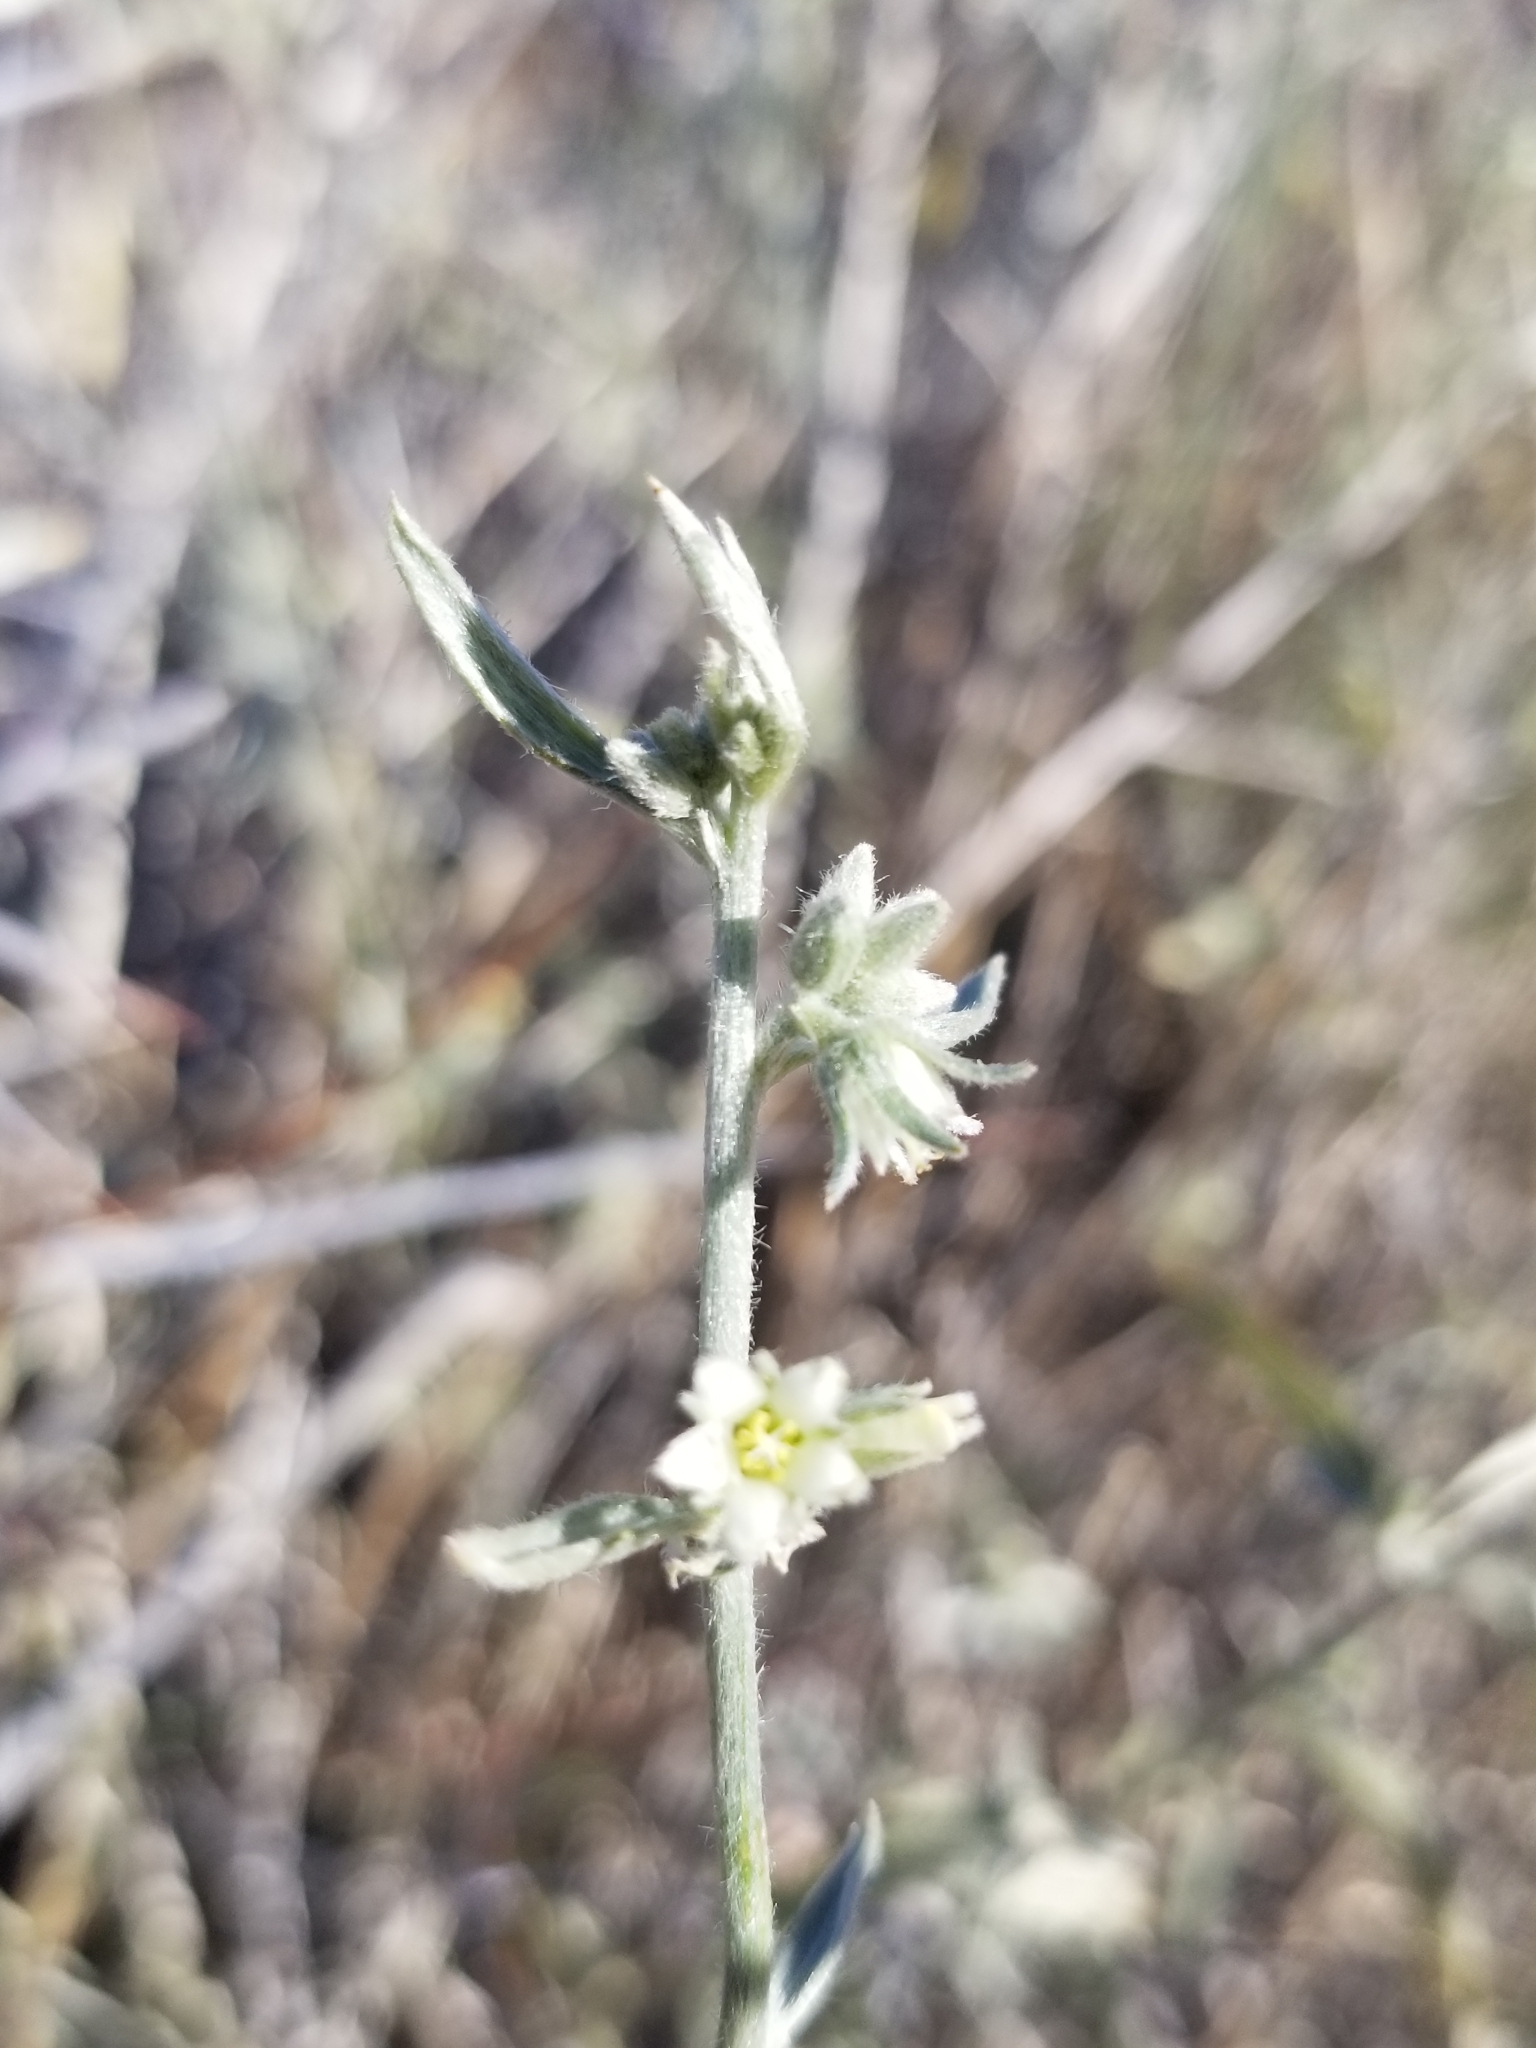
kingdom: Plantae
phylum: Tracheophyta
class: Magnoliopsida
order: Malpighiales
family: Euphorbiaceae
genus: Ditaxis
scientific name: Ditaxis lanceolata
